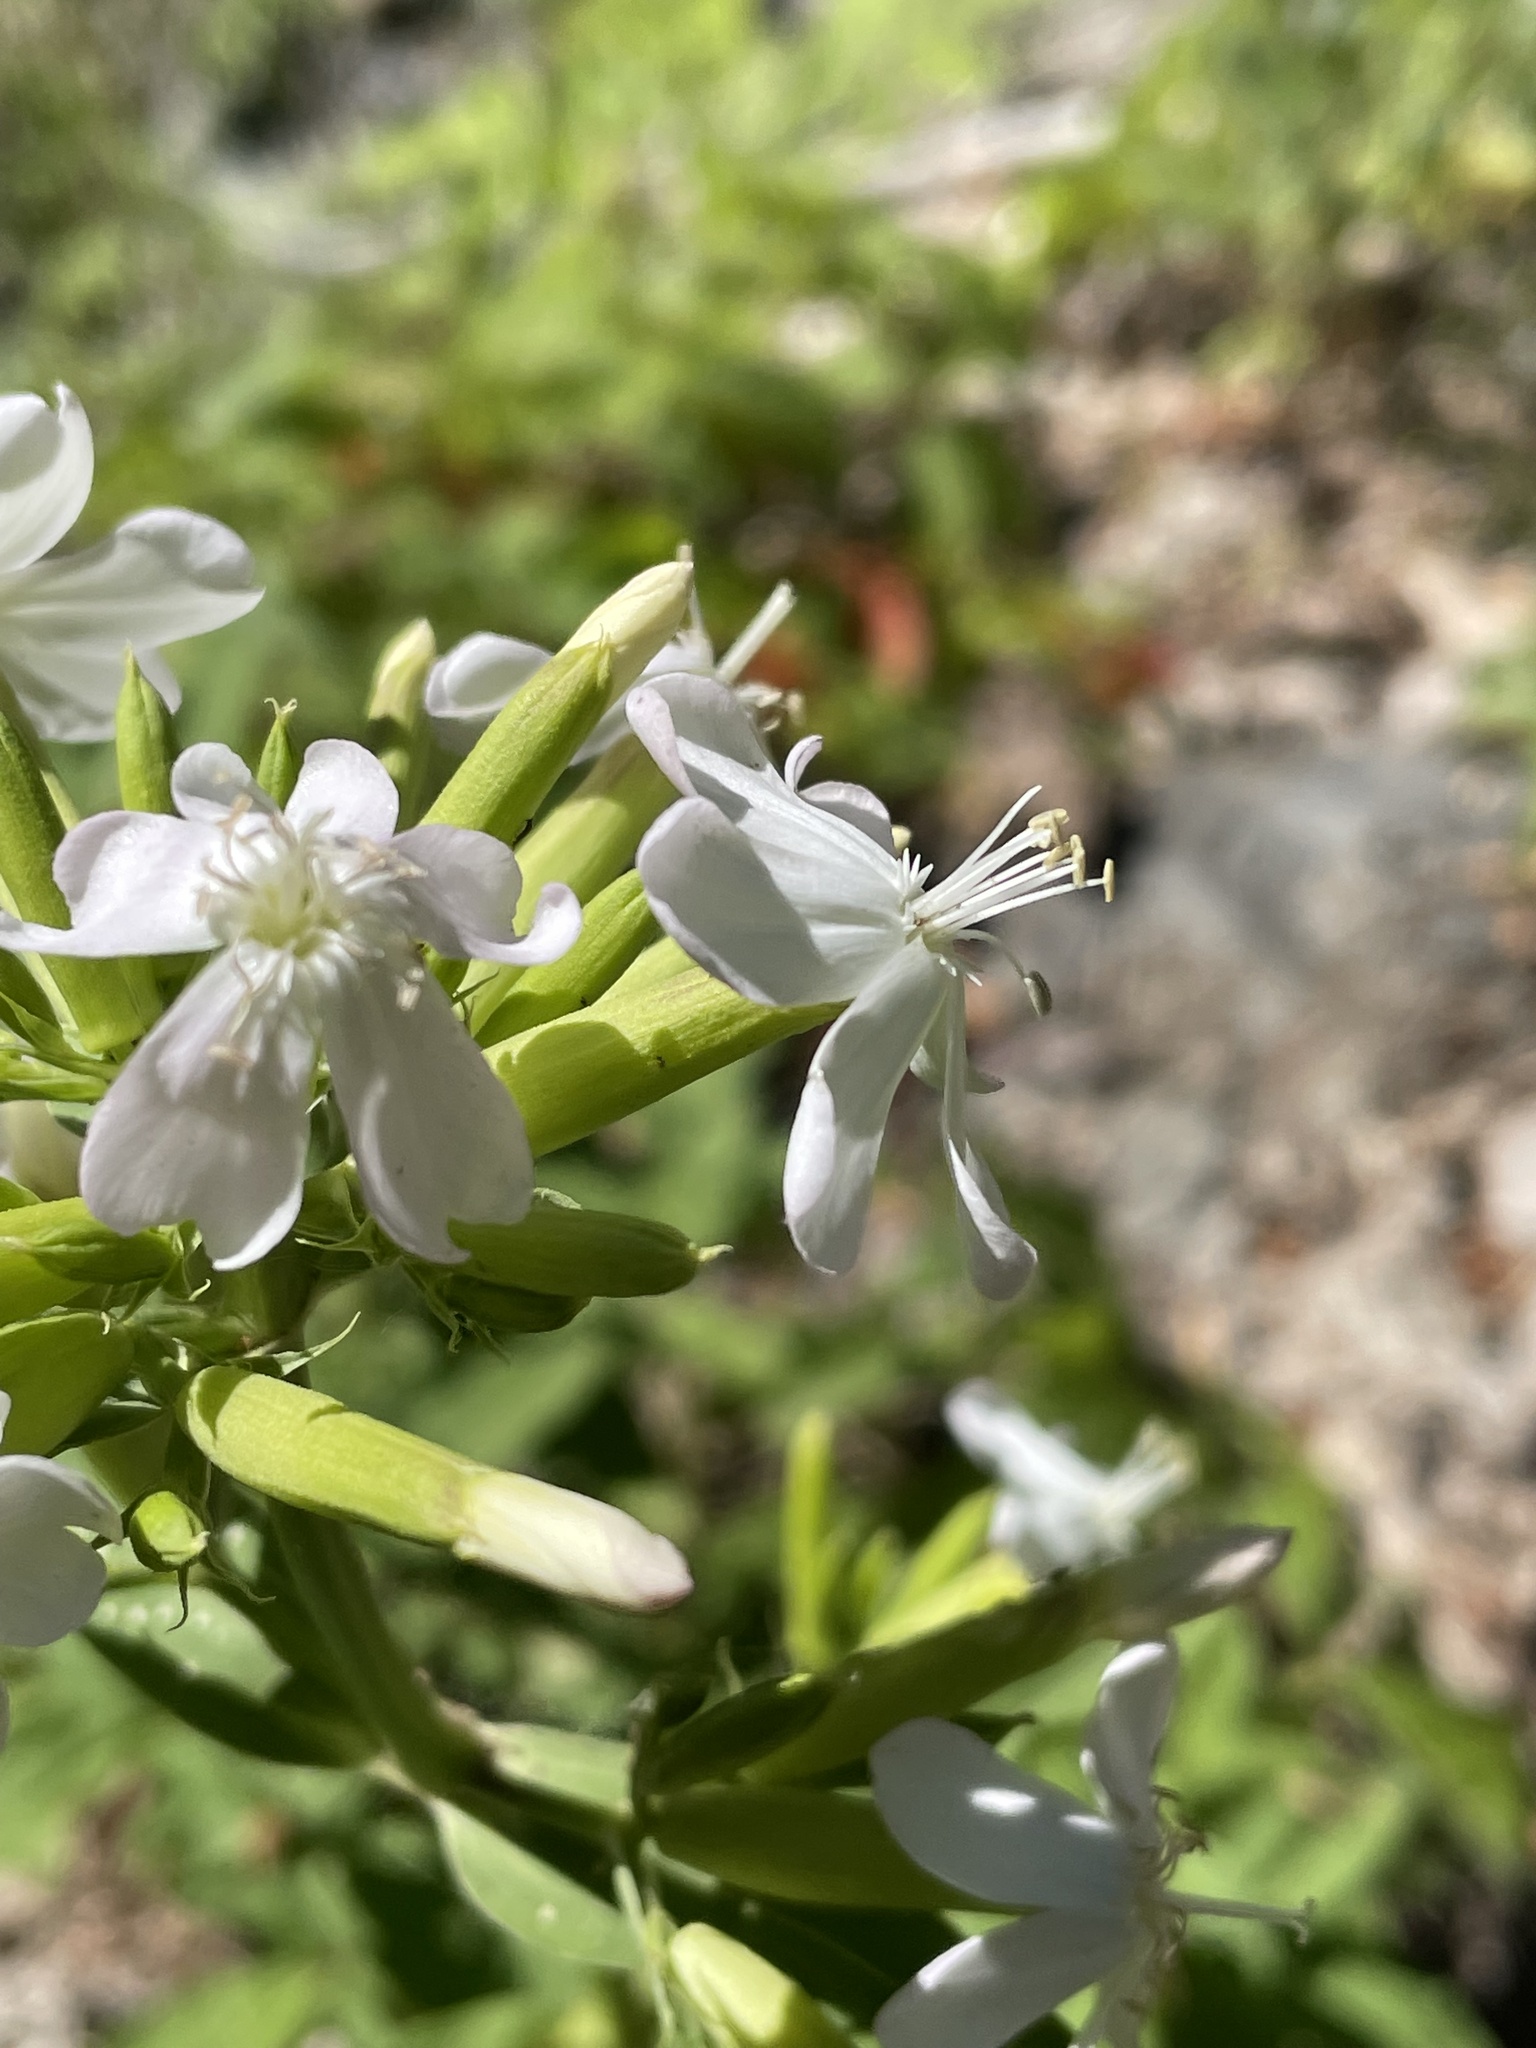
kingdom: Plantae
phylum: Tracheophyta
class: Magnoliopsida
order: Caryophyllales
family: Caryophyllaceae
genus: Saponaria
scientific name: Saponaria officinalis
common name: Soapwort
